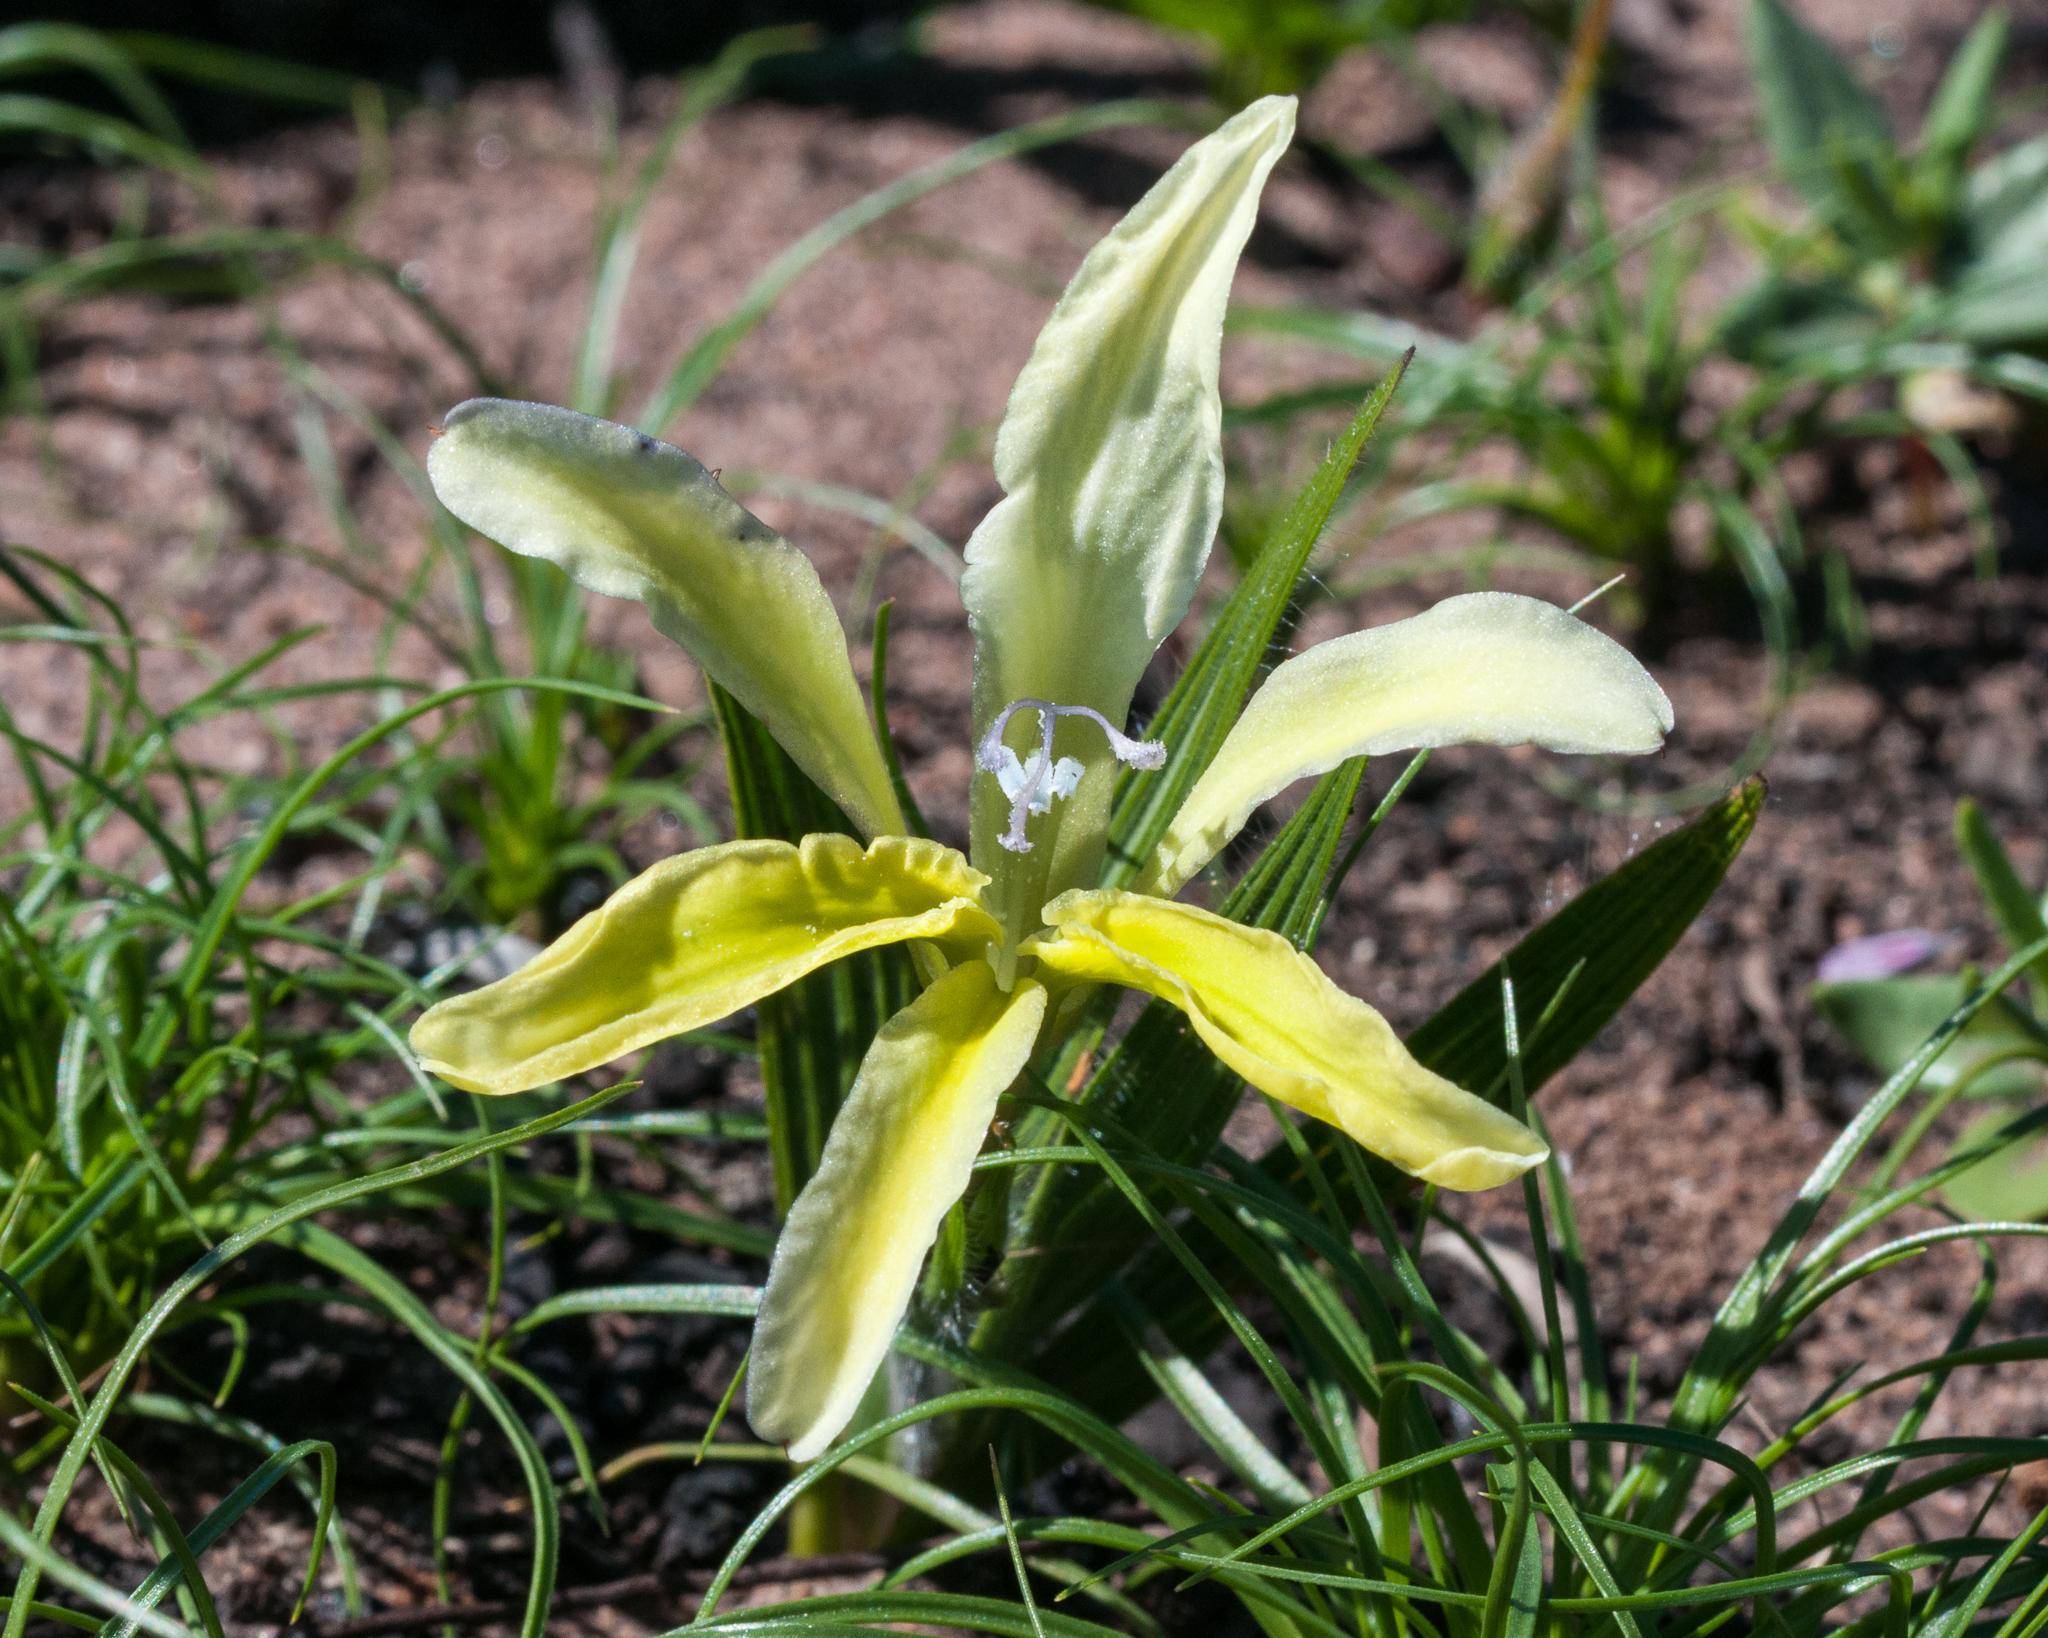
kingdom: Plantae
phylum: Tracheophyta
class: Liliopsida
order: Asparagales
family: Iridaceae
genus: Babiana
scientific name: Babiana odorata
